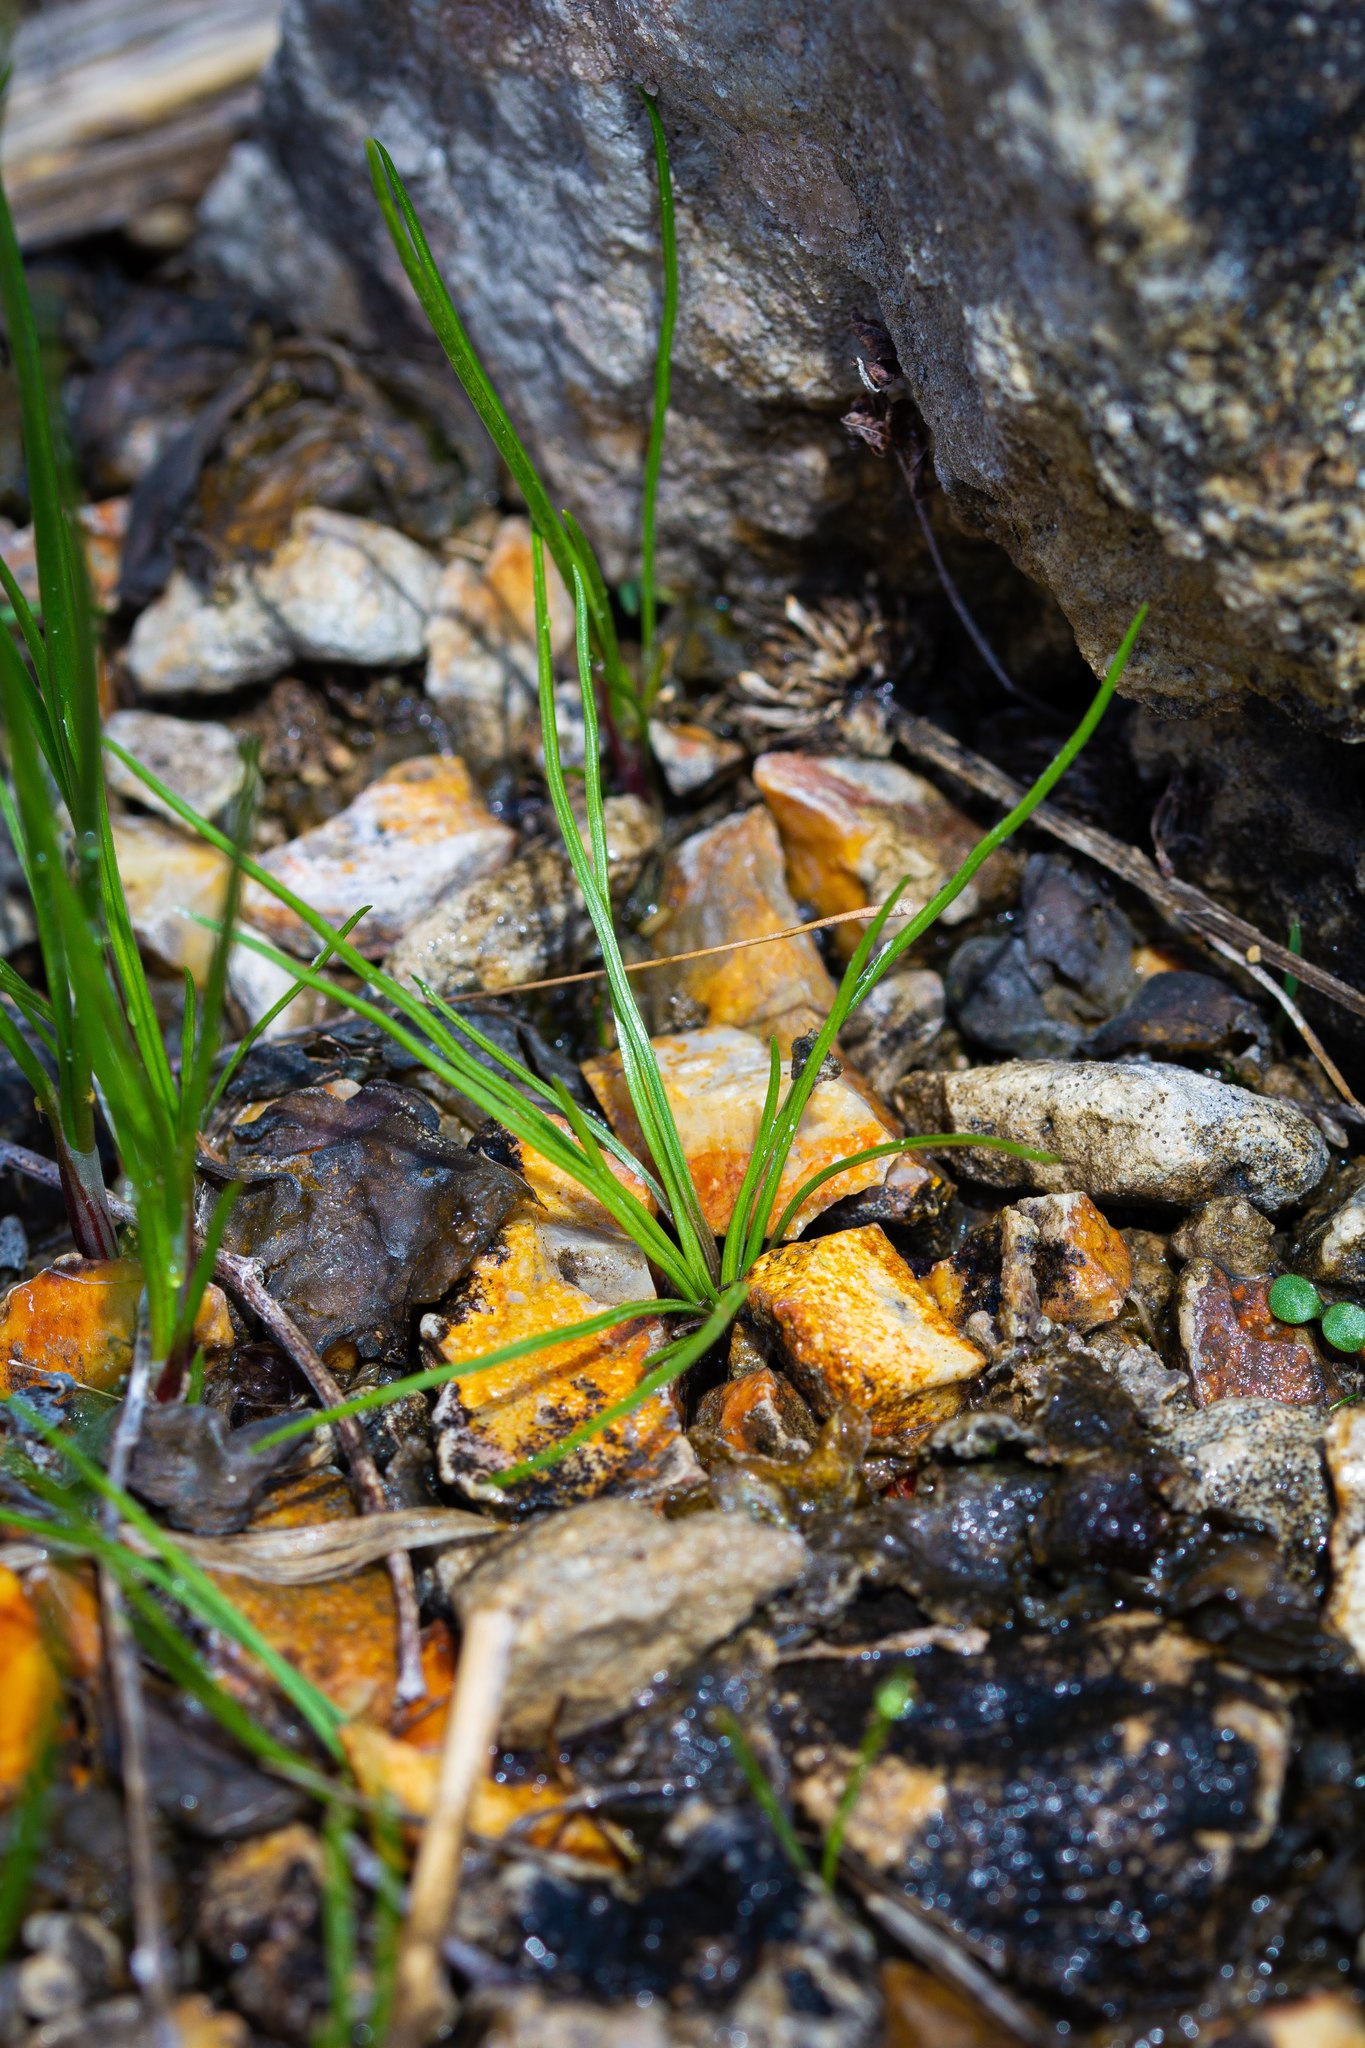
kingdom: Plantae
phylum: Tracheophyta
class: Lycopodiopsida
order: Isoetales
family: Isoetaceae
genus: Isoetes
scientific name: Isoetes butleri
